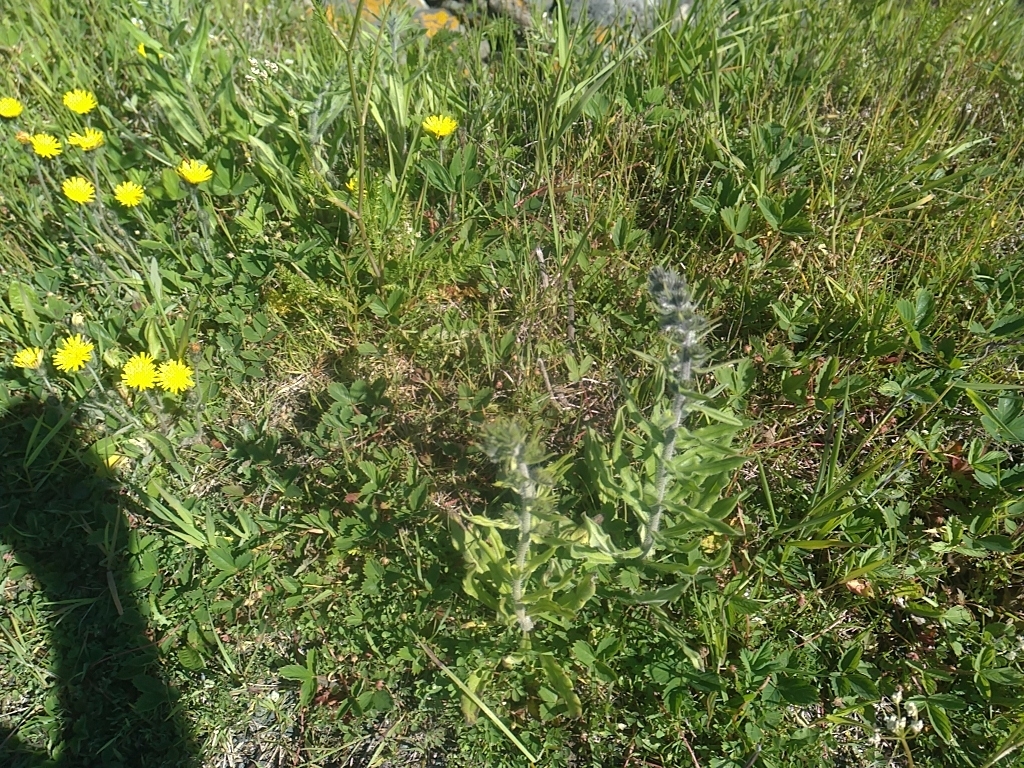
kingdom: Plantae
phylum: Tracheophyta
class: Magnoliopsida
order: Boraginales
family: Boraginaceae
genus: Echium
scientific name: Echium vulgare
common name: Common viper's bugloss
